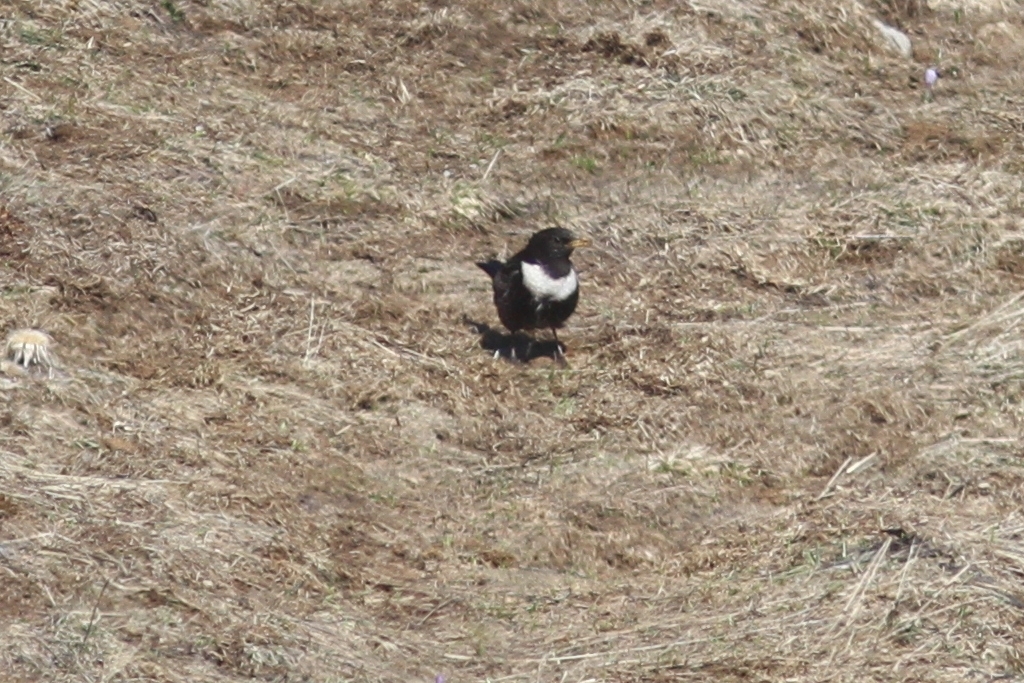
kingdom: Animalia
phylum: Chordata
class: Aves
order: Passeriformes
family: Turdidae
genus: Turdus
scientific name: Turdus torquatus
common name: Ring ouzel
